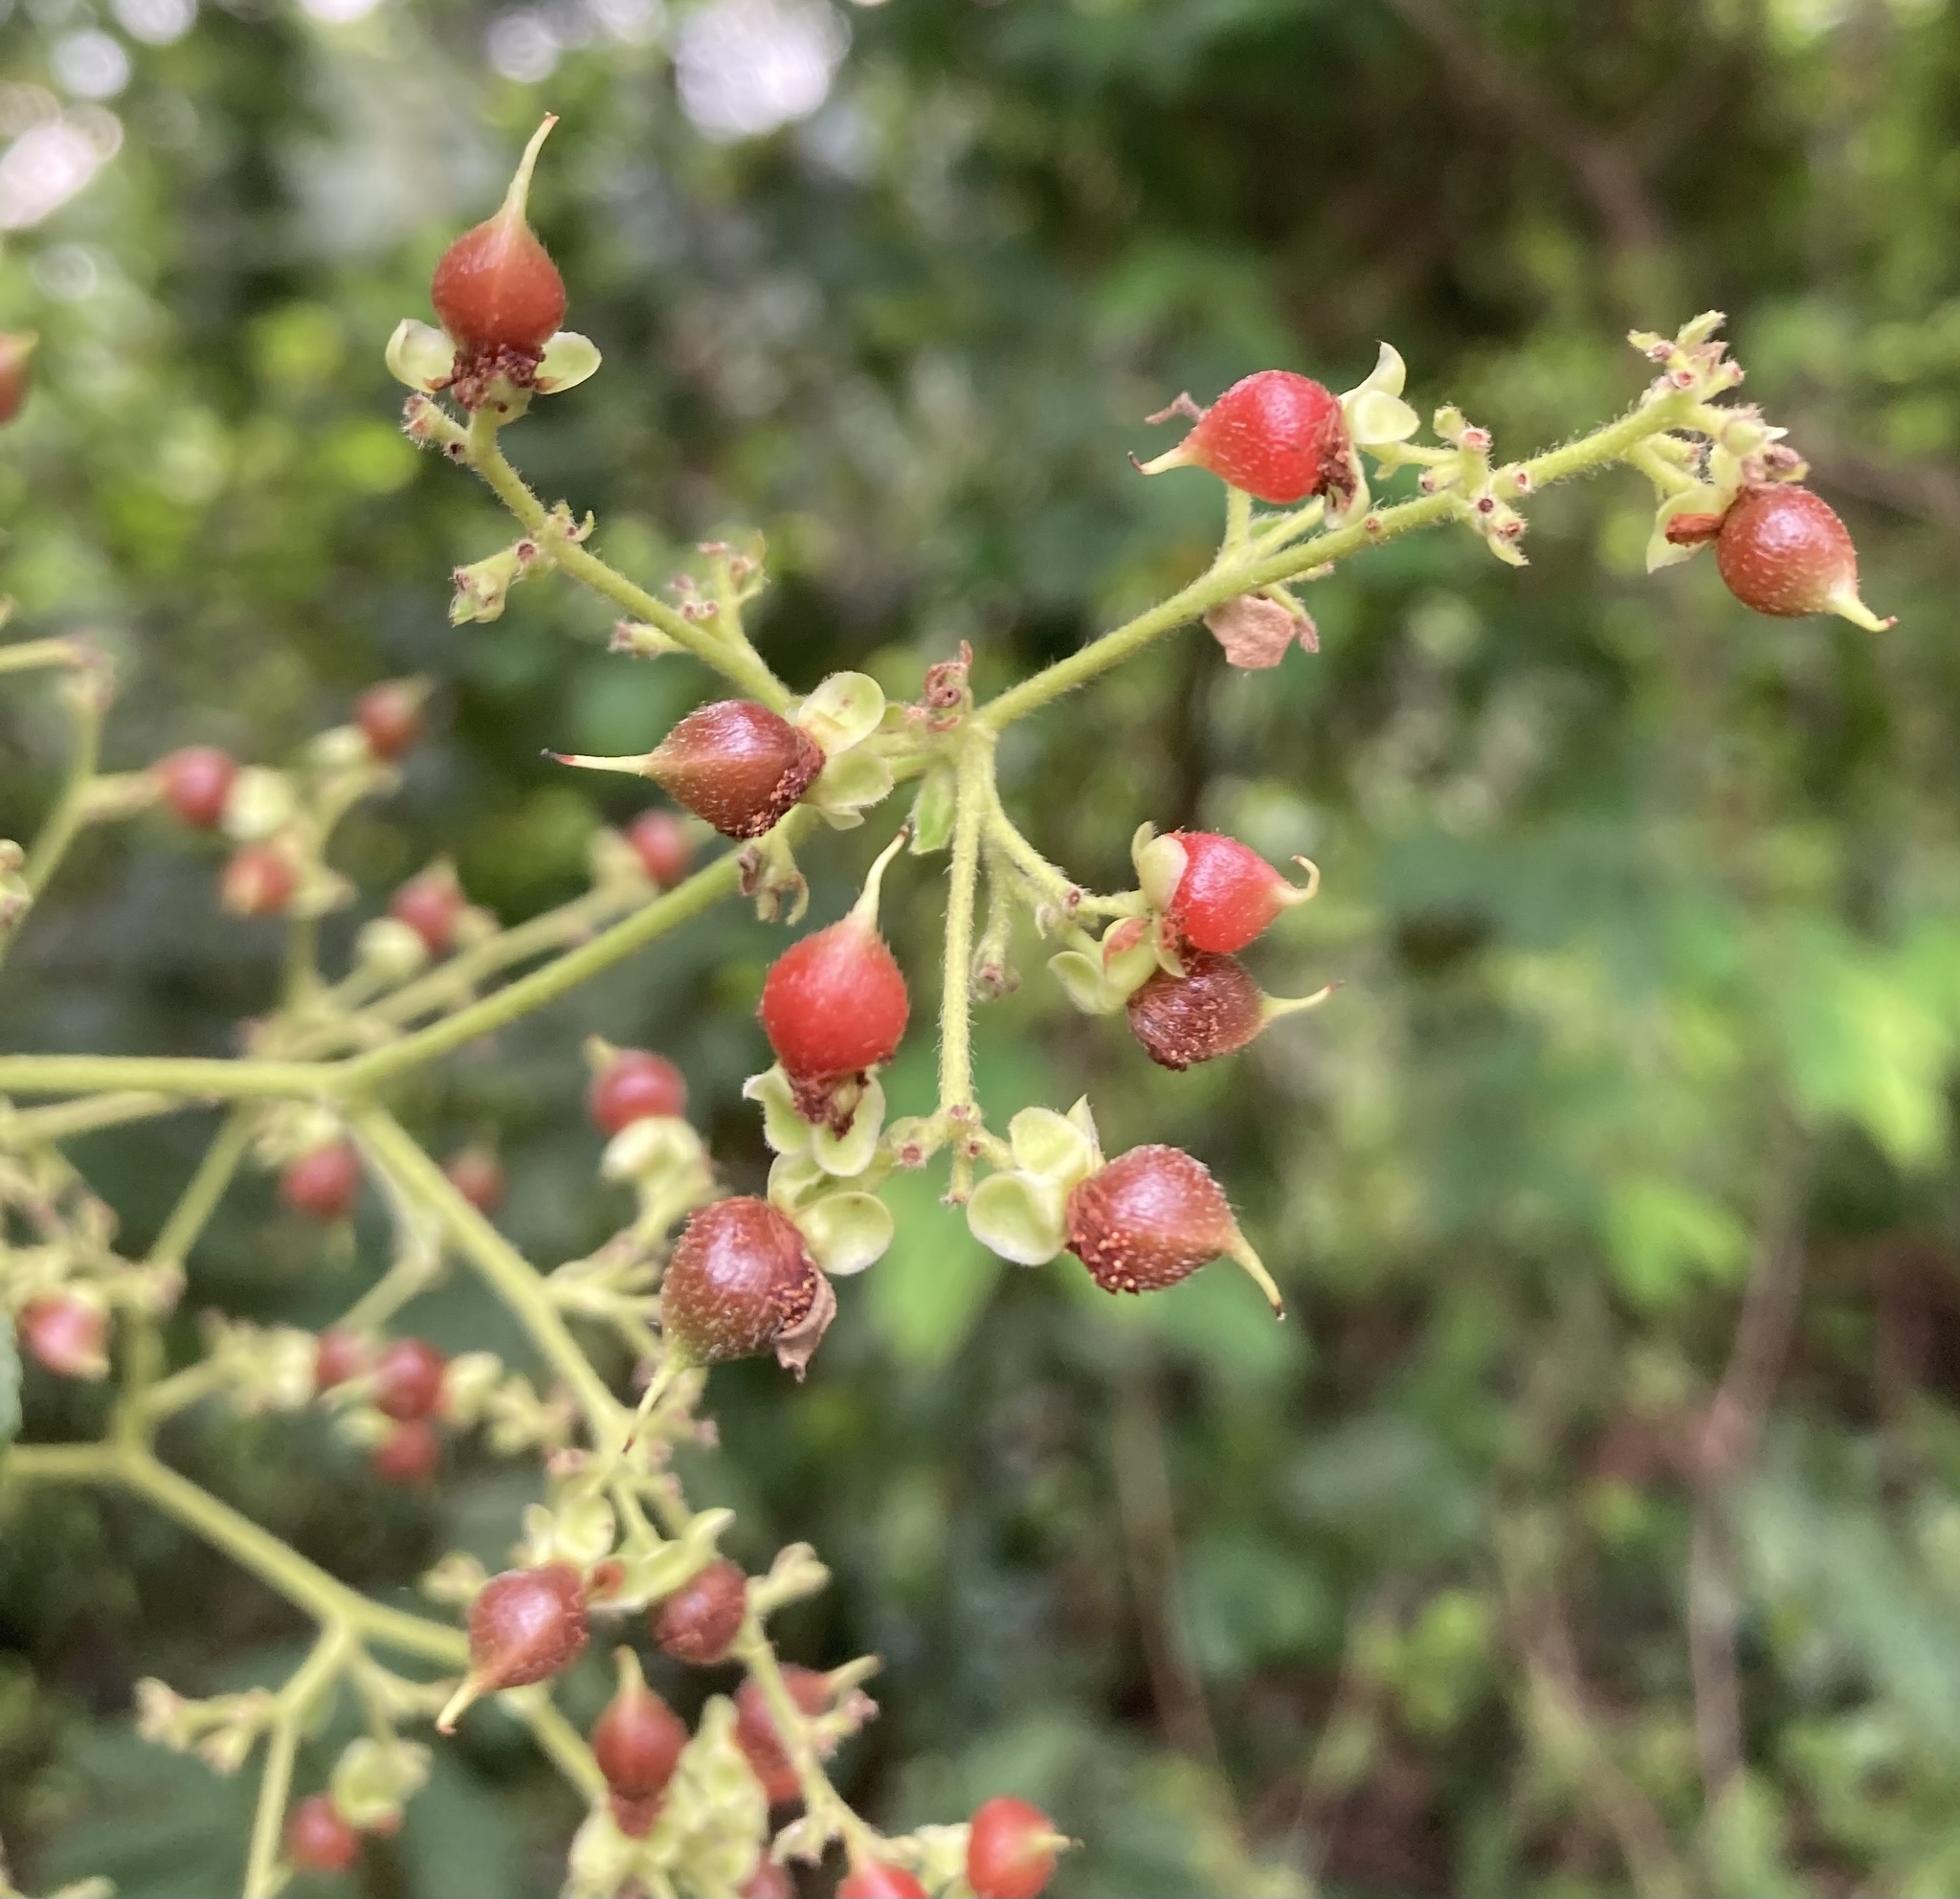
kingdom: Plantae
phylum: Tracheophyta
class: Magnoliopsida
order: Dilleniales
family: Dilleniaceae
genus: Tetracera
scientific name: Tetracera indica
